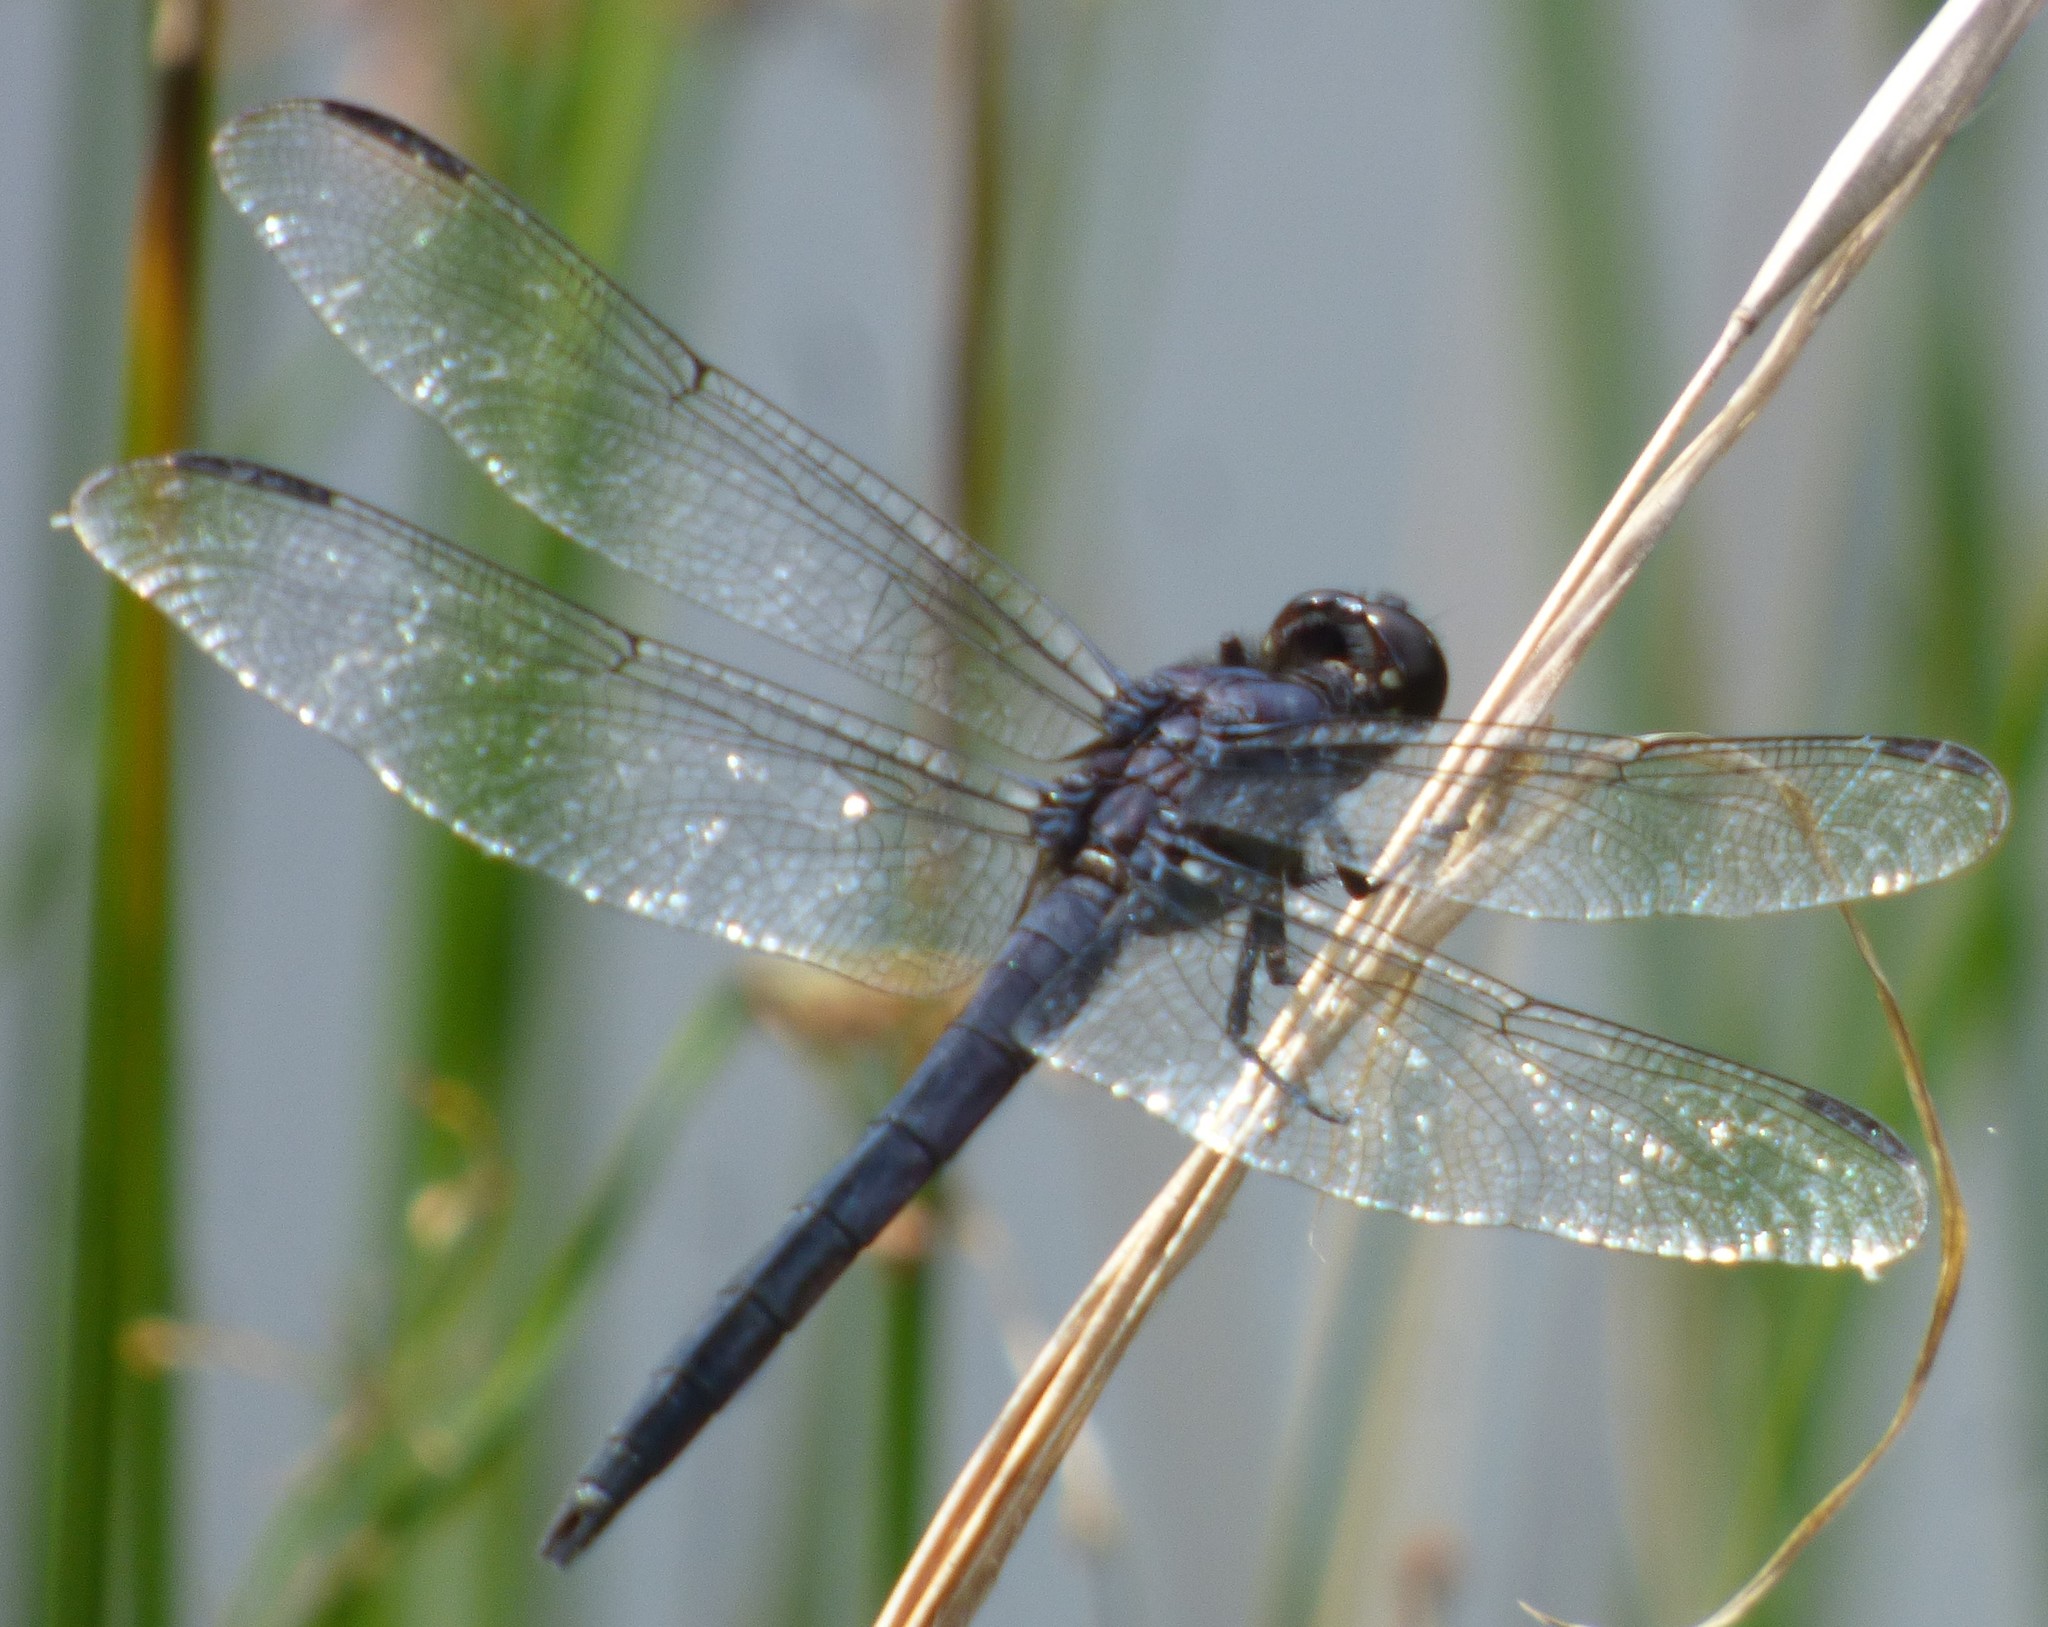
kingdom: Animalia
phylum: Arthropoda
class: Insecta
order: Odonata
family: Libellulidae
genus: Libellula
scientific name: Libellula incesta
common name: Slaty skimmer
